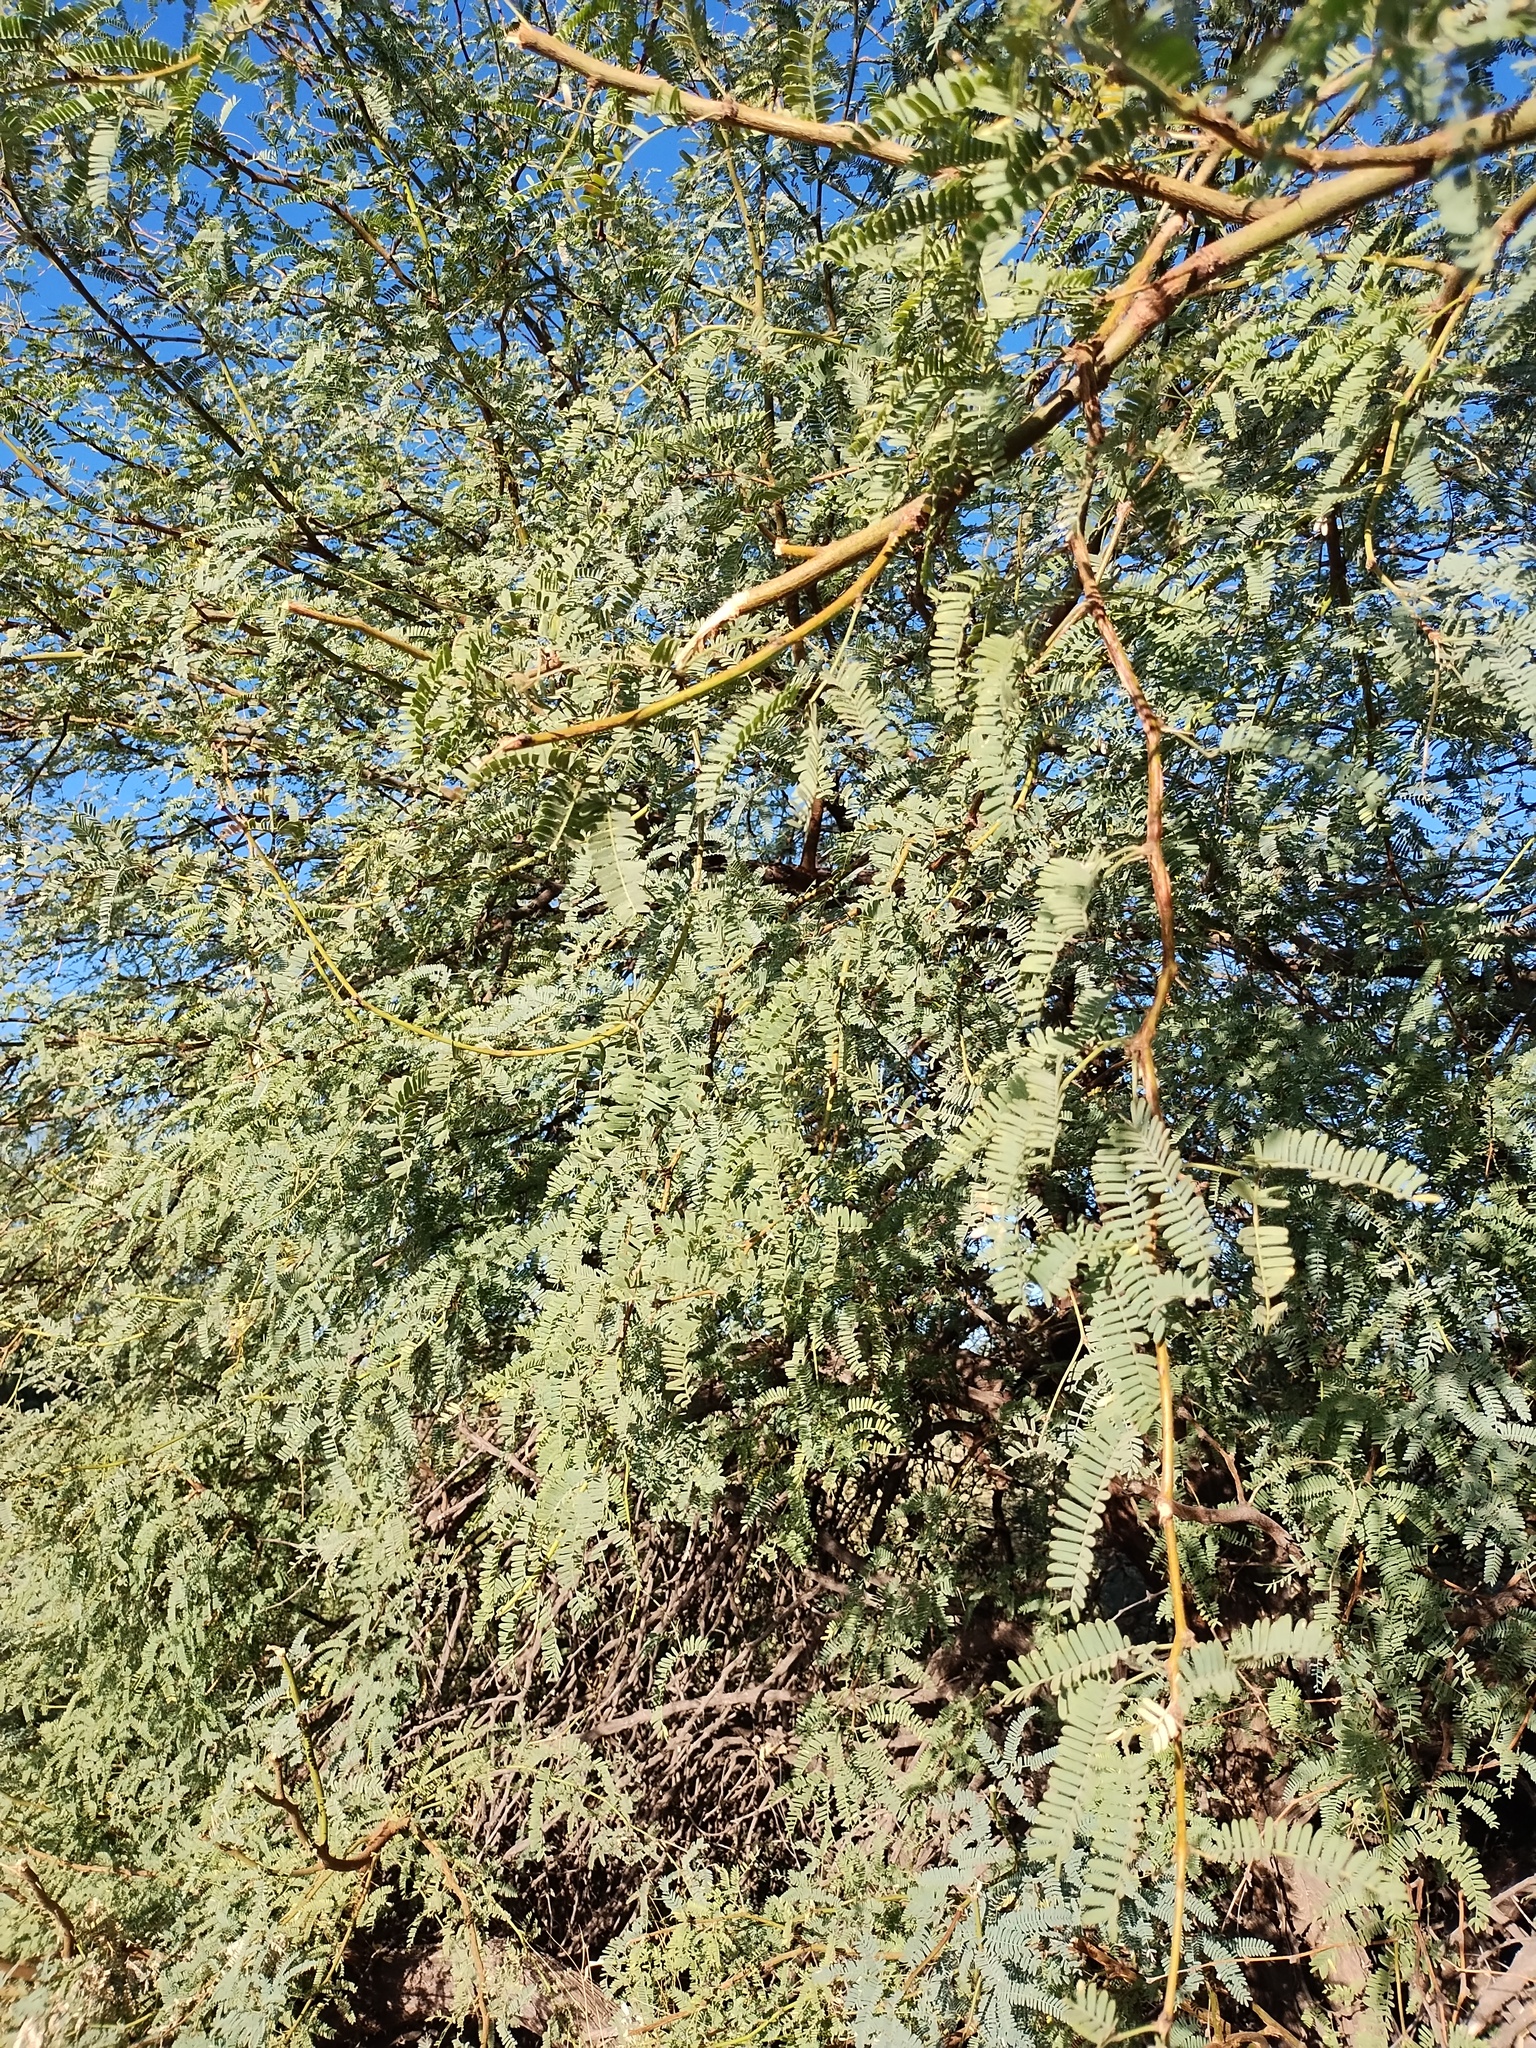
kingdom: Plantae
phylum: Tracheophyta
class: Magnoliopsida
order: Fabales
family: Fabaceae
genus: Prosopis
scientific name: Prosopis velutina
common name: Velvet mesquite
